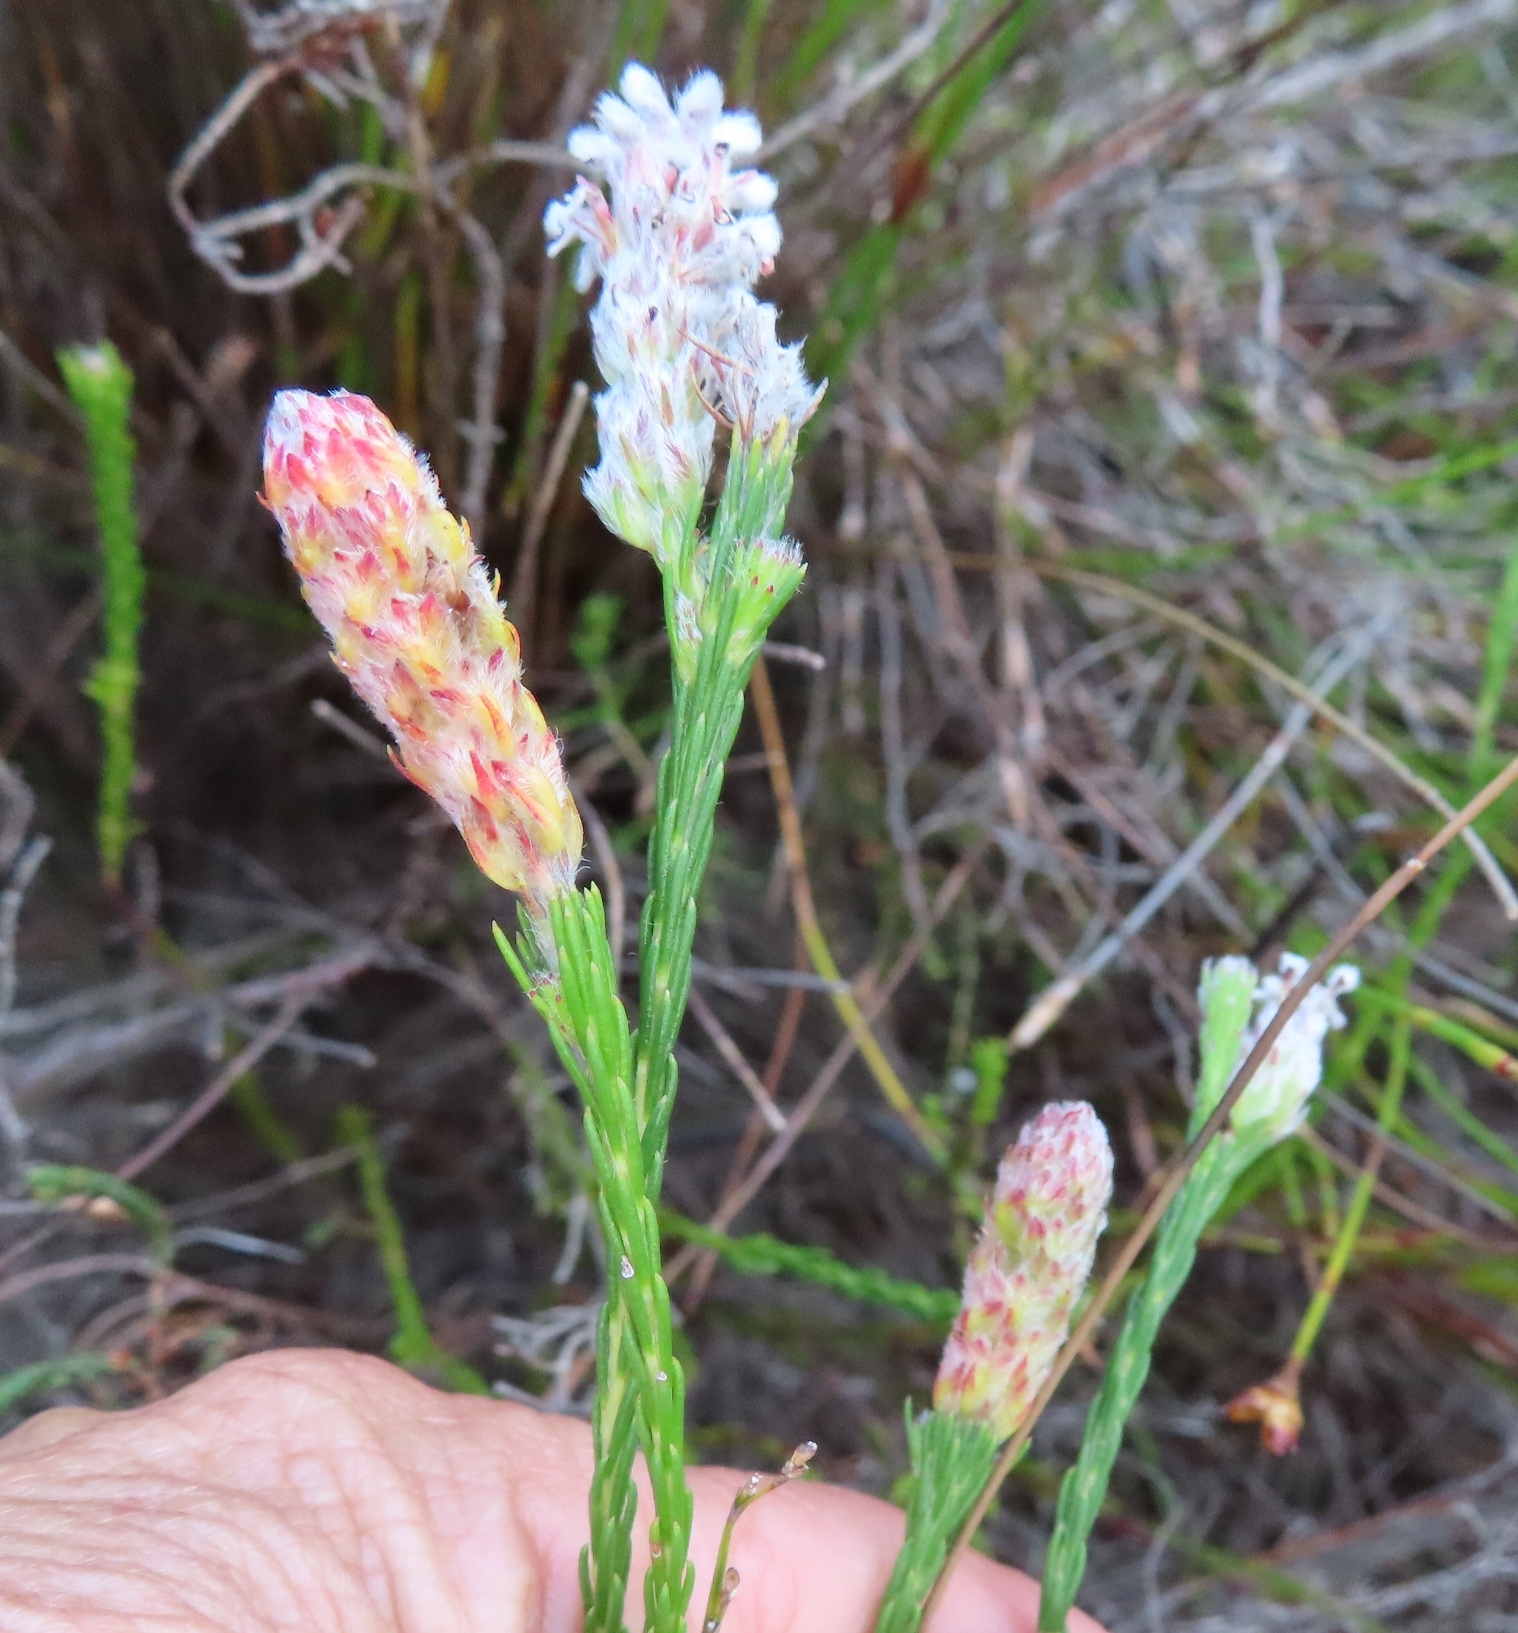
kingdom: Plantae
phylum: Tracheophyta
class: Magnoliopsida
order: Proteales
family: Proteaceae
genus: Spatalla
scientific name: Spatalla ericoides
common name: Erica-leaf spoon
